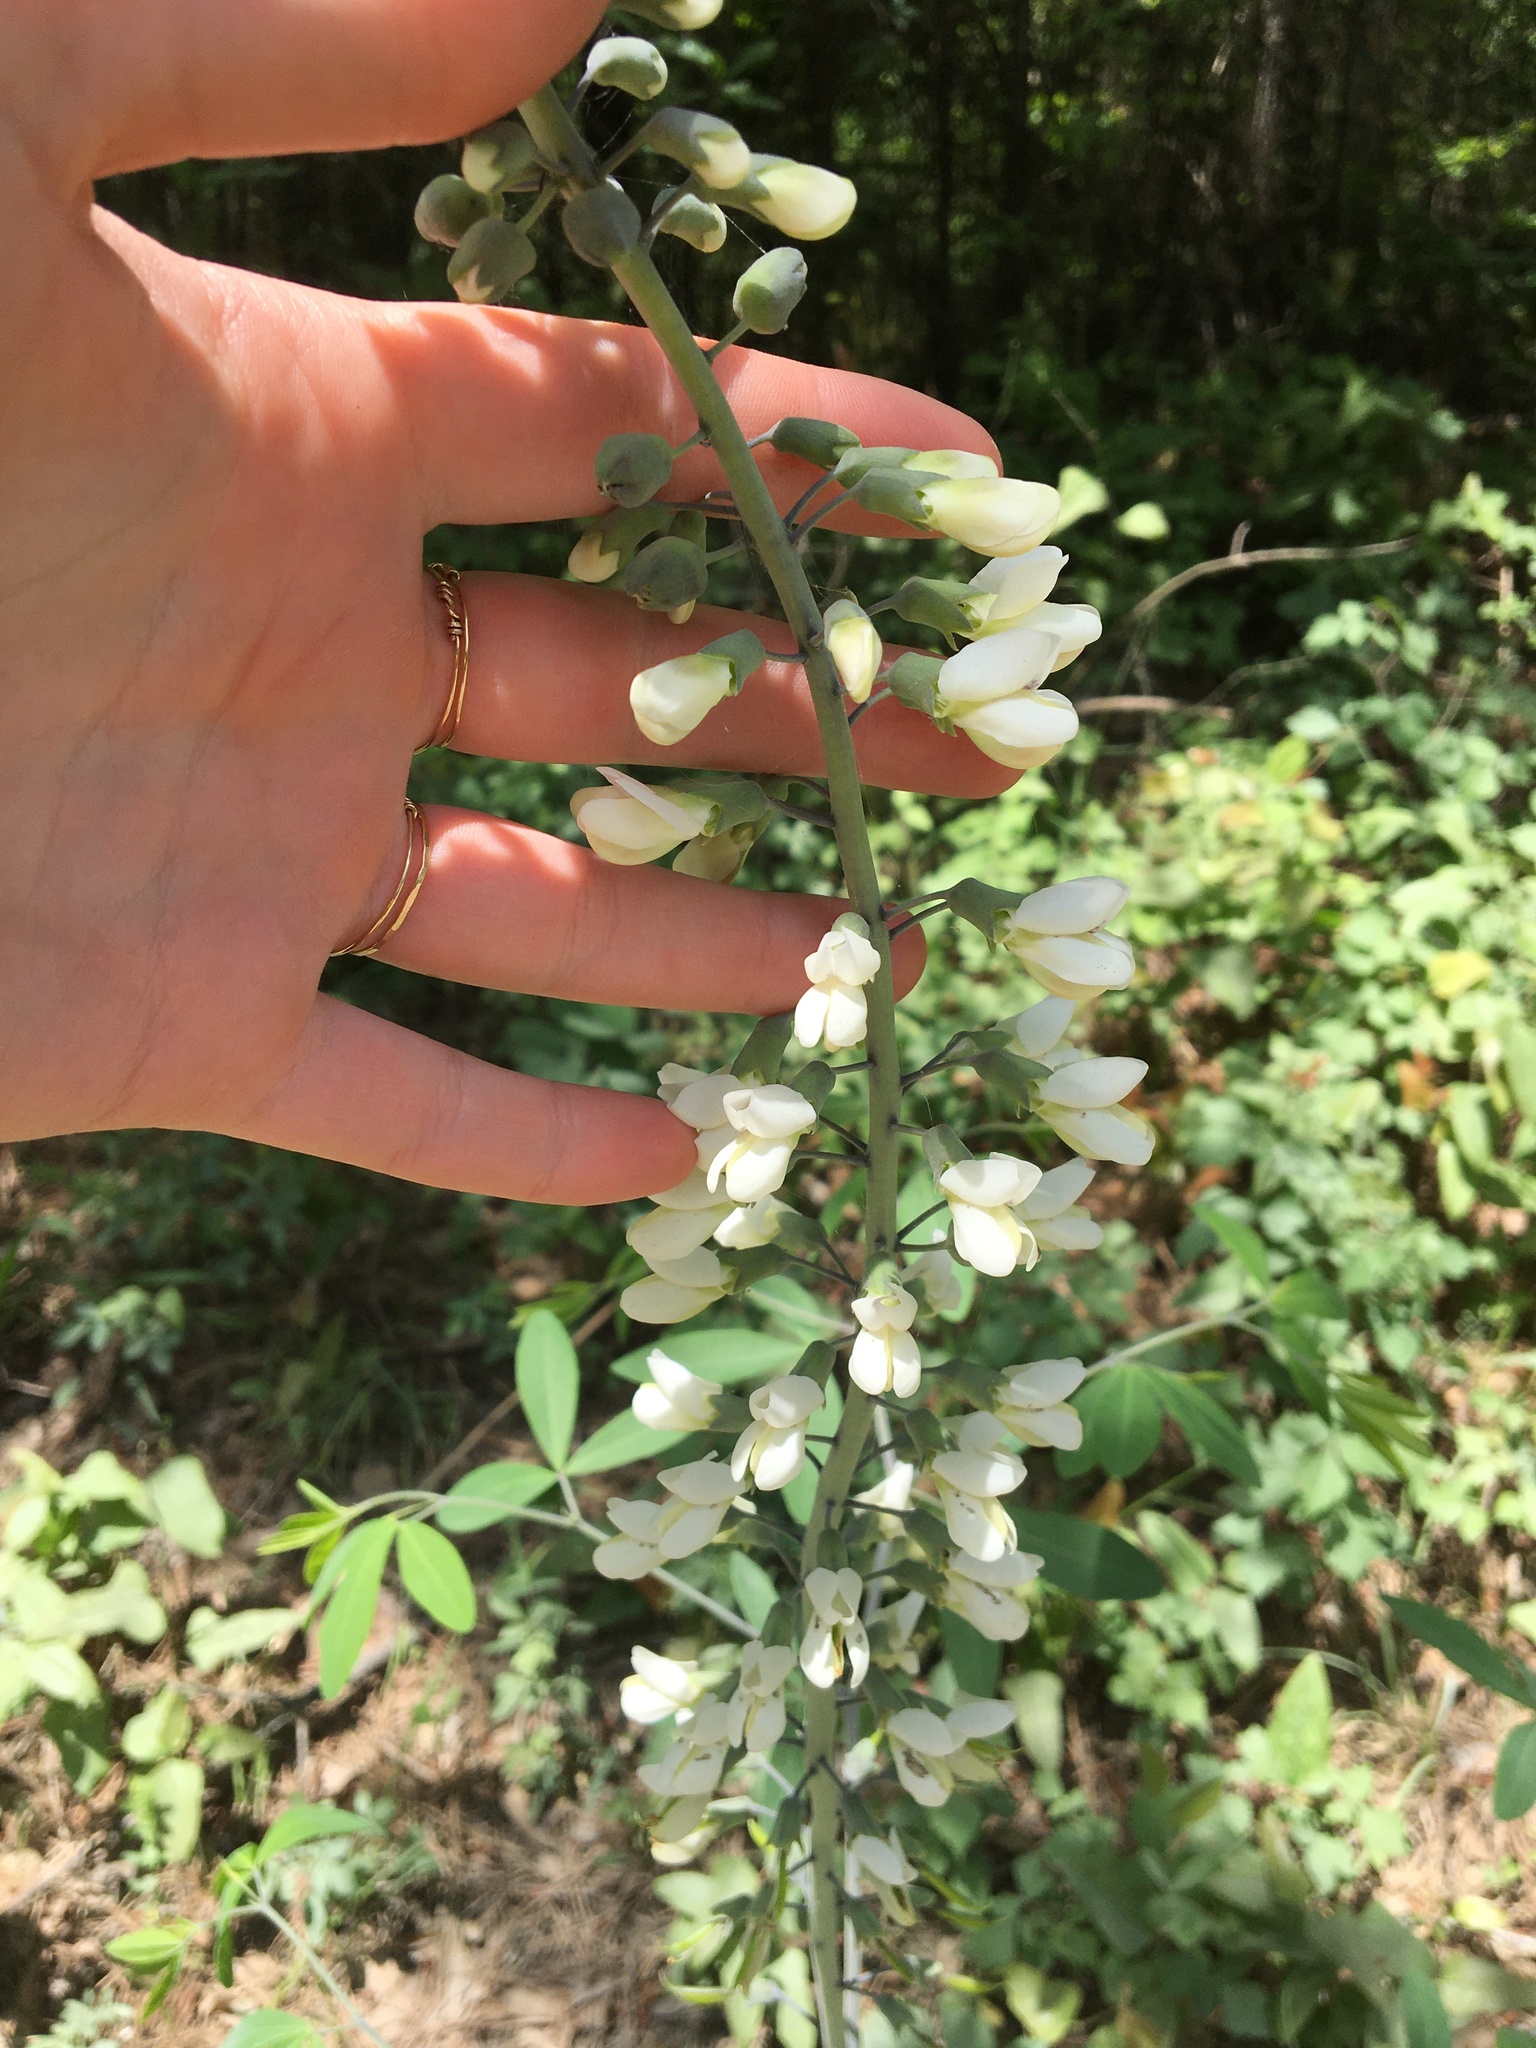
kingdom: Plantae
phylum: Tracheophyta
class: Magnoliopsida
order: Fabales
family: Fabaceae
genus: Baptisia
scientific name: Baptisia alba
